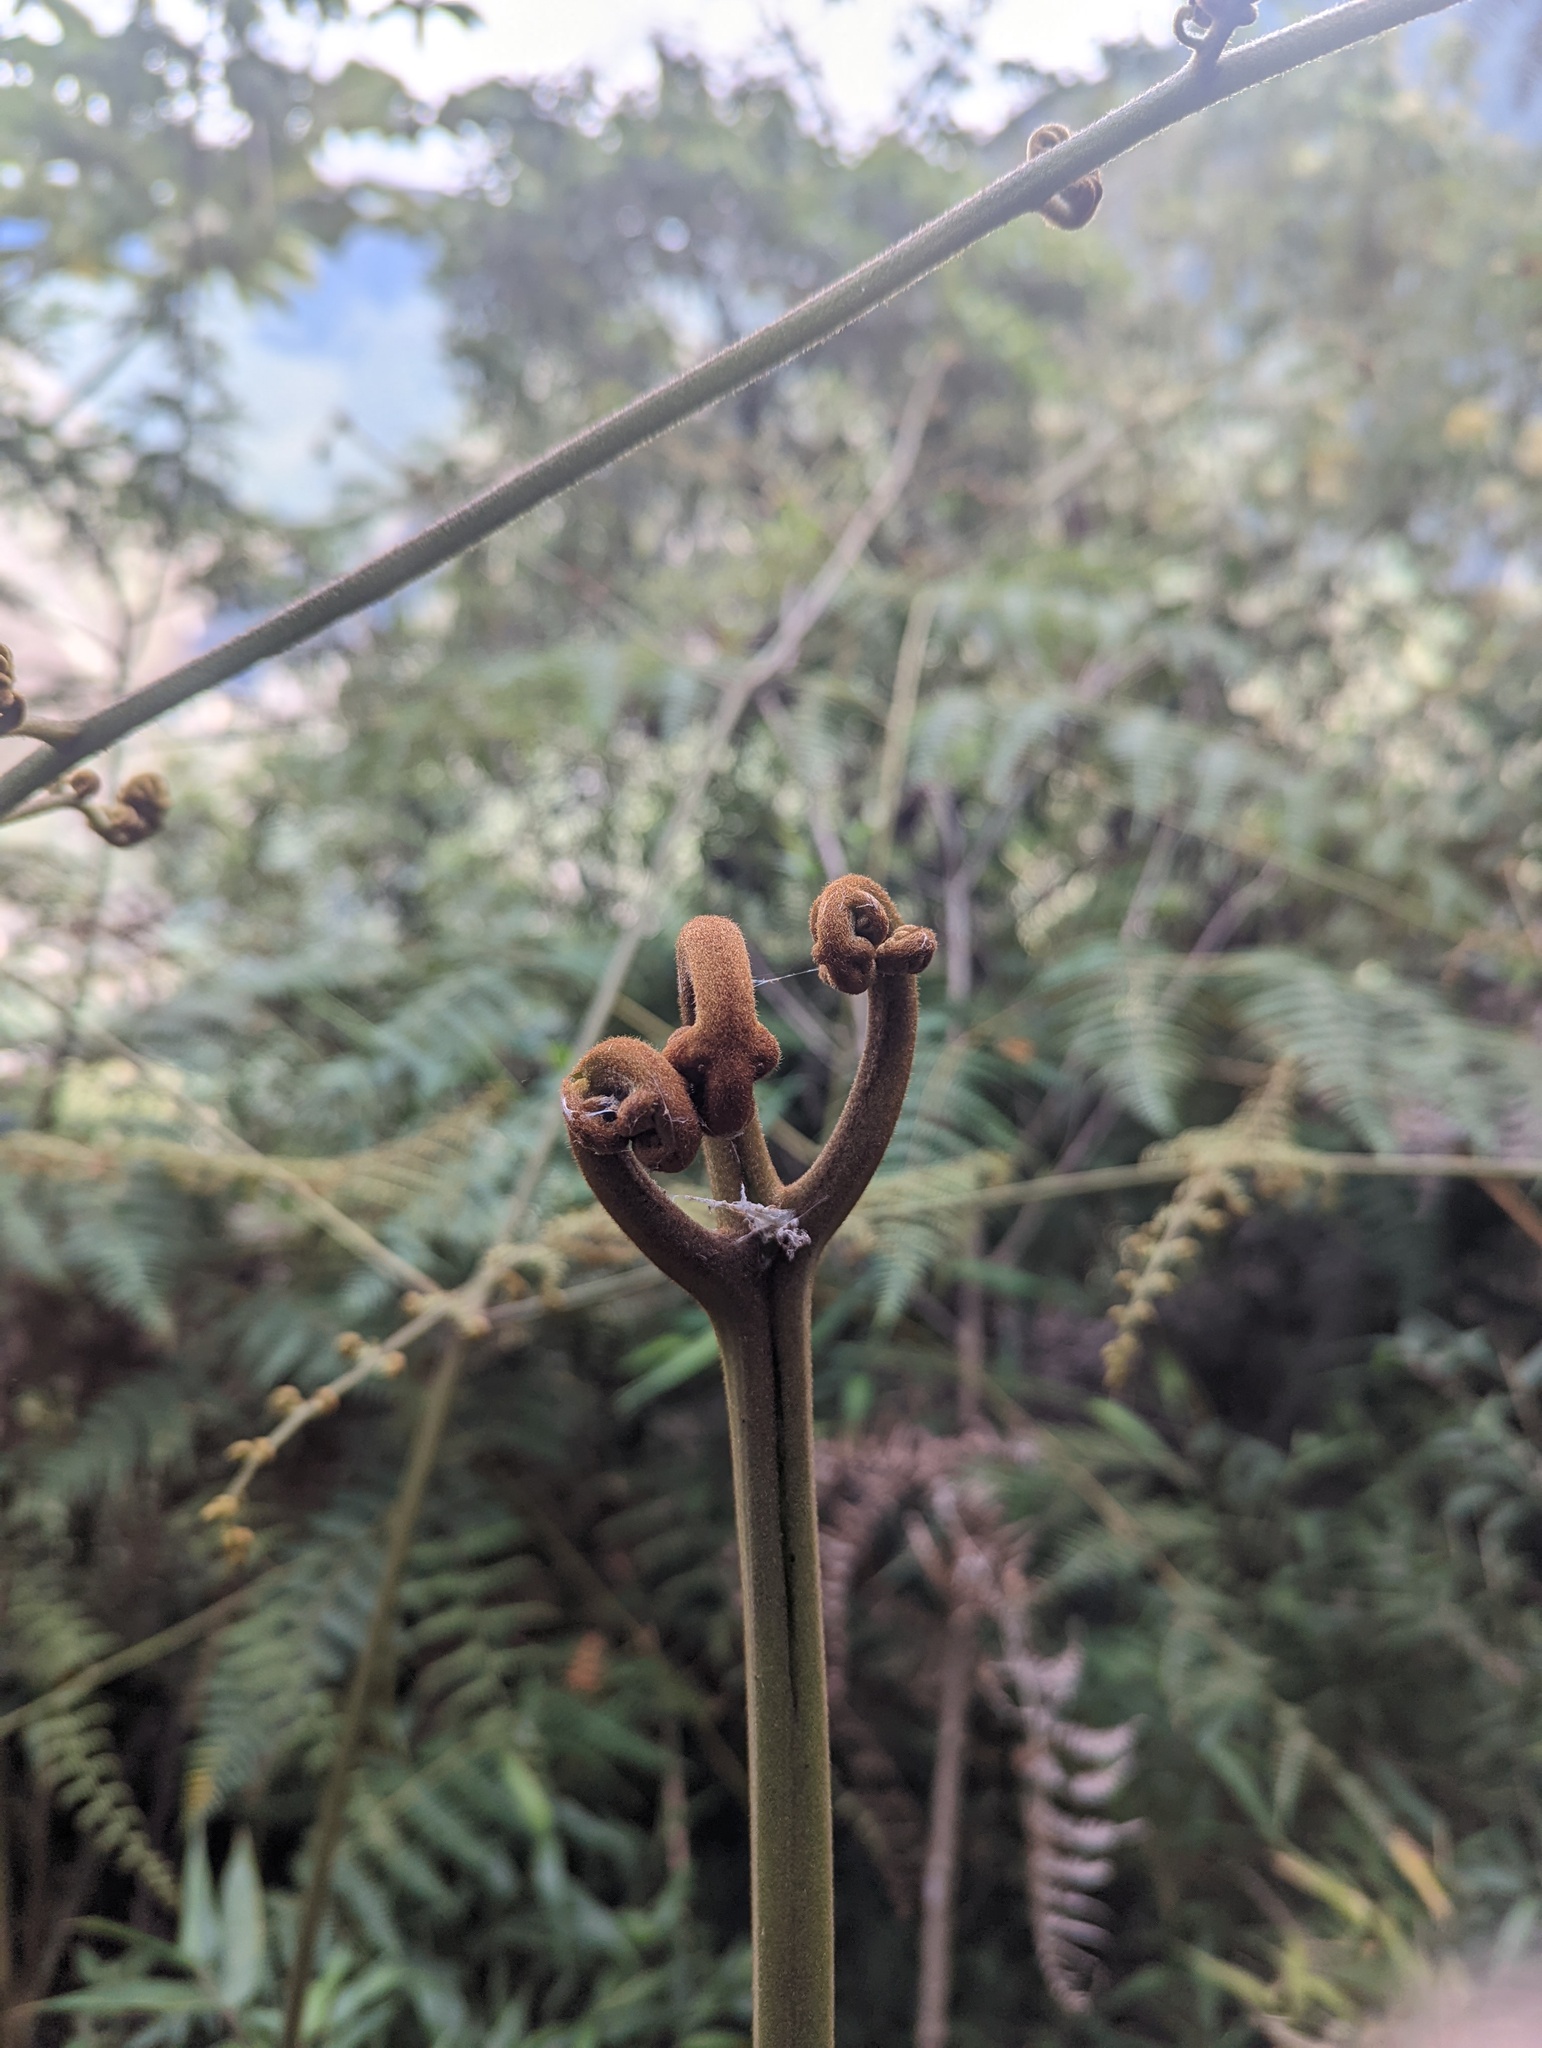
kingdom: Plantae
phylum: Tracheophyta
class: Polypodiopsida
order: Polypodiales
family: Dennstaedtiaceae
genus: Pteridium
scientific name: Pteridium esculentum
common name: Bracken fern
